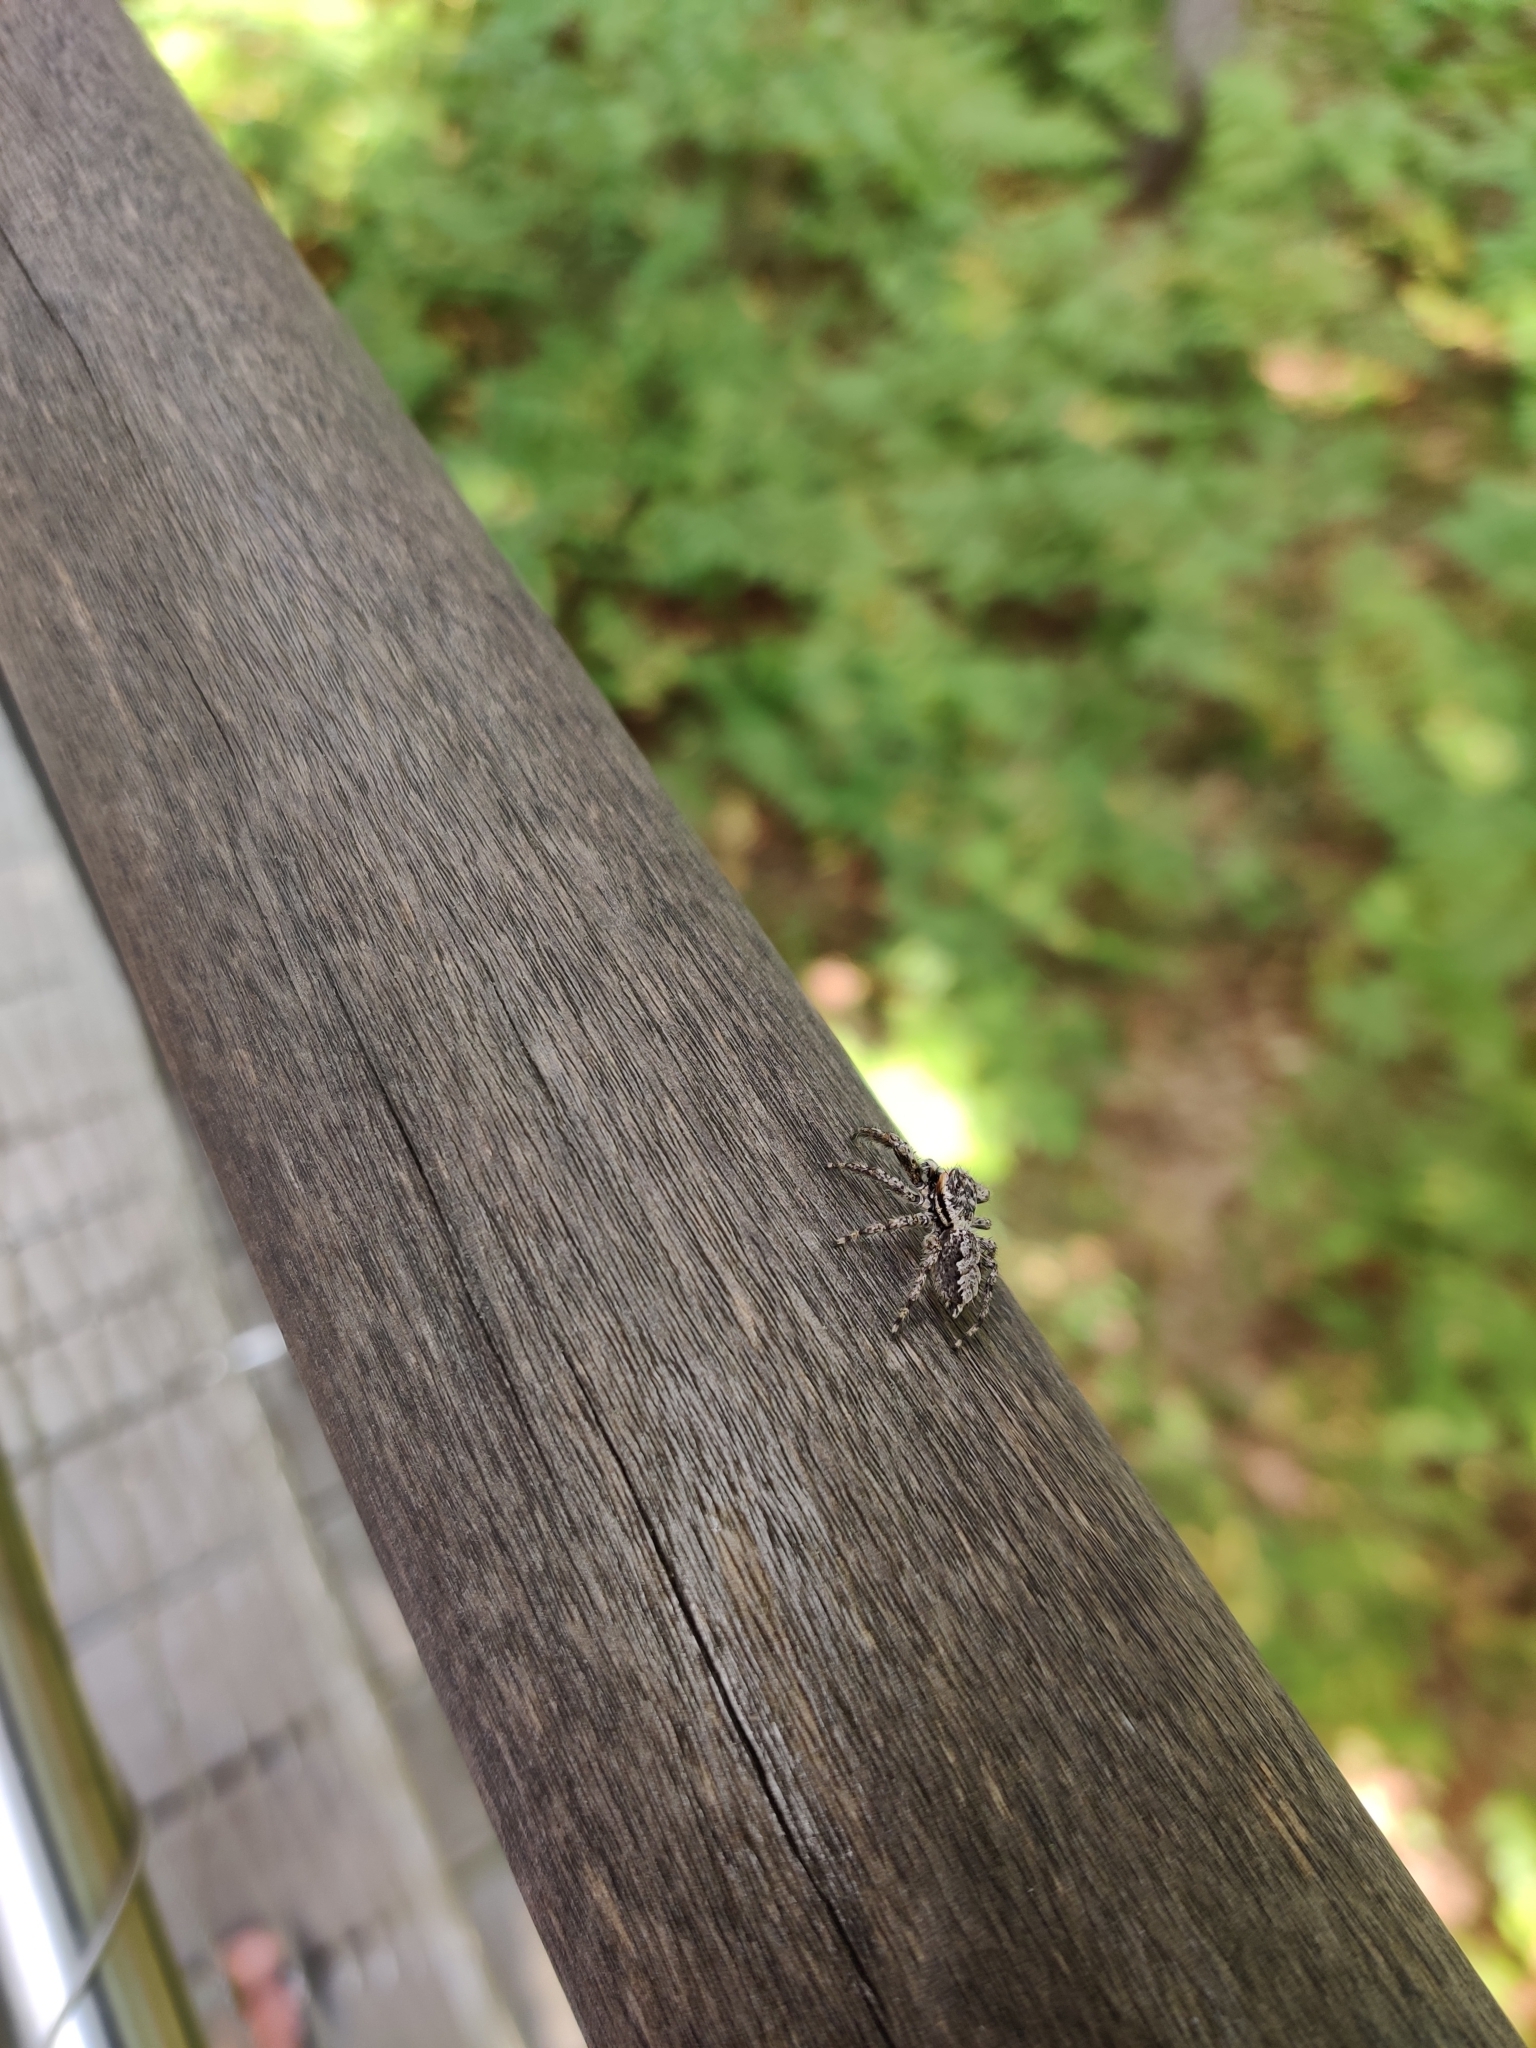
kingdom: Animalia
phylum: Arthropoda
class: Arachnida
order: Araneae
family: Salticidae
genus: Platycryptus
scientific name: Platycryptus undatus
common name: Tan jumping spider
